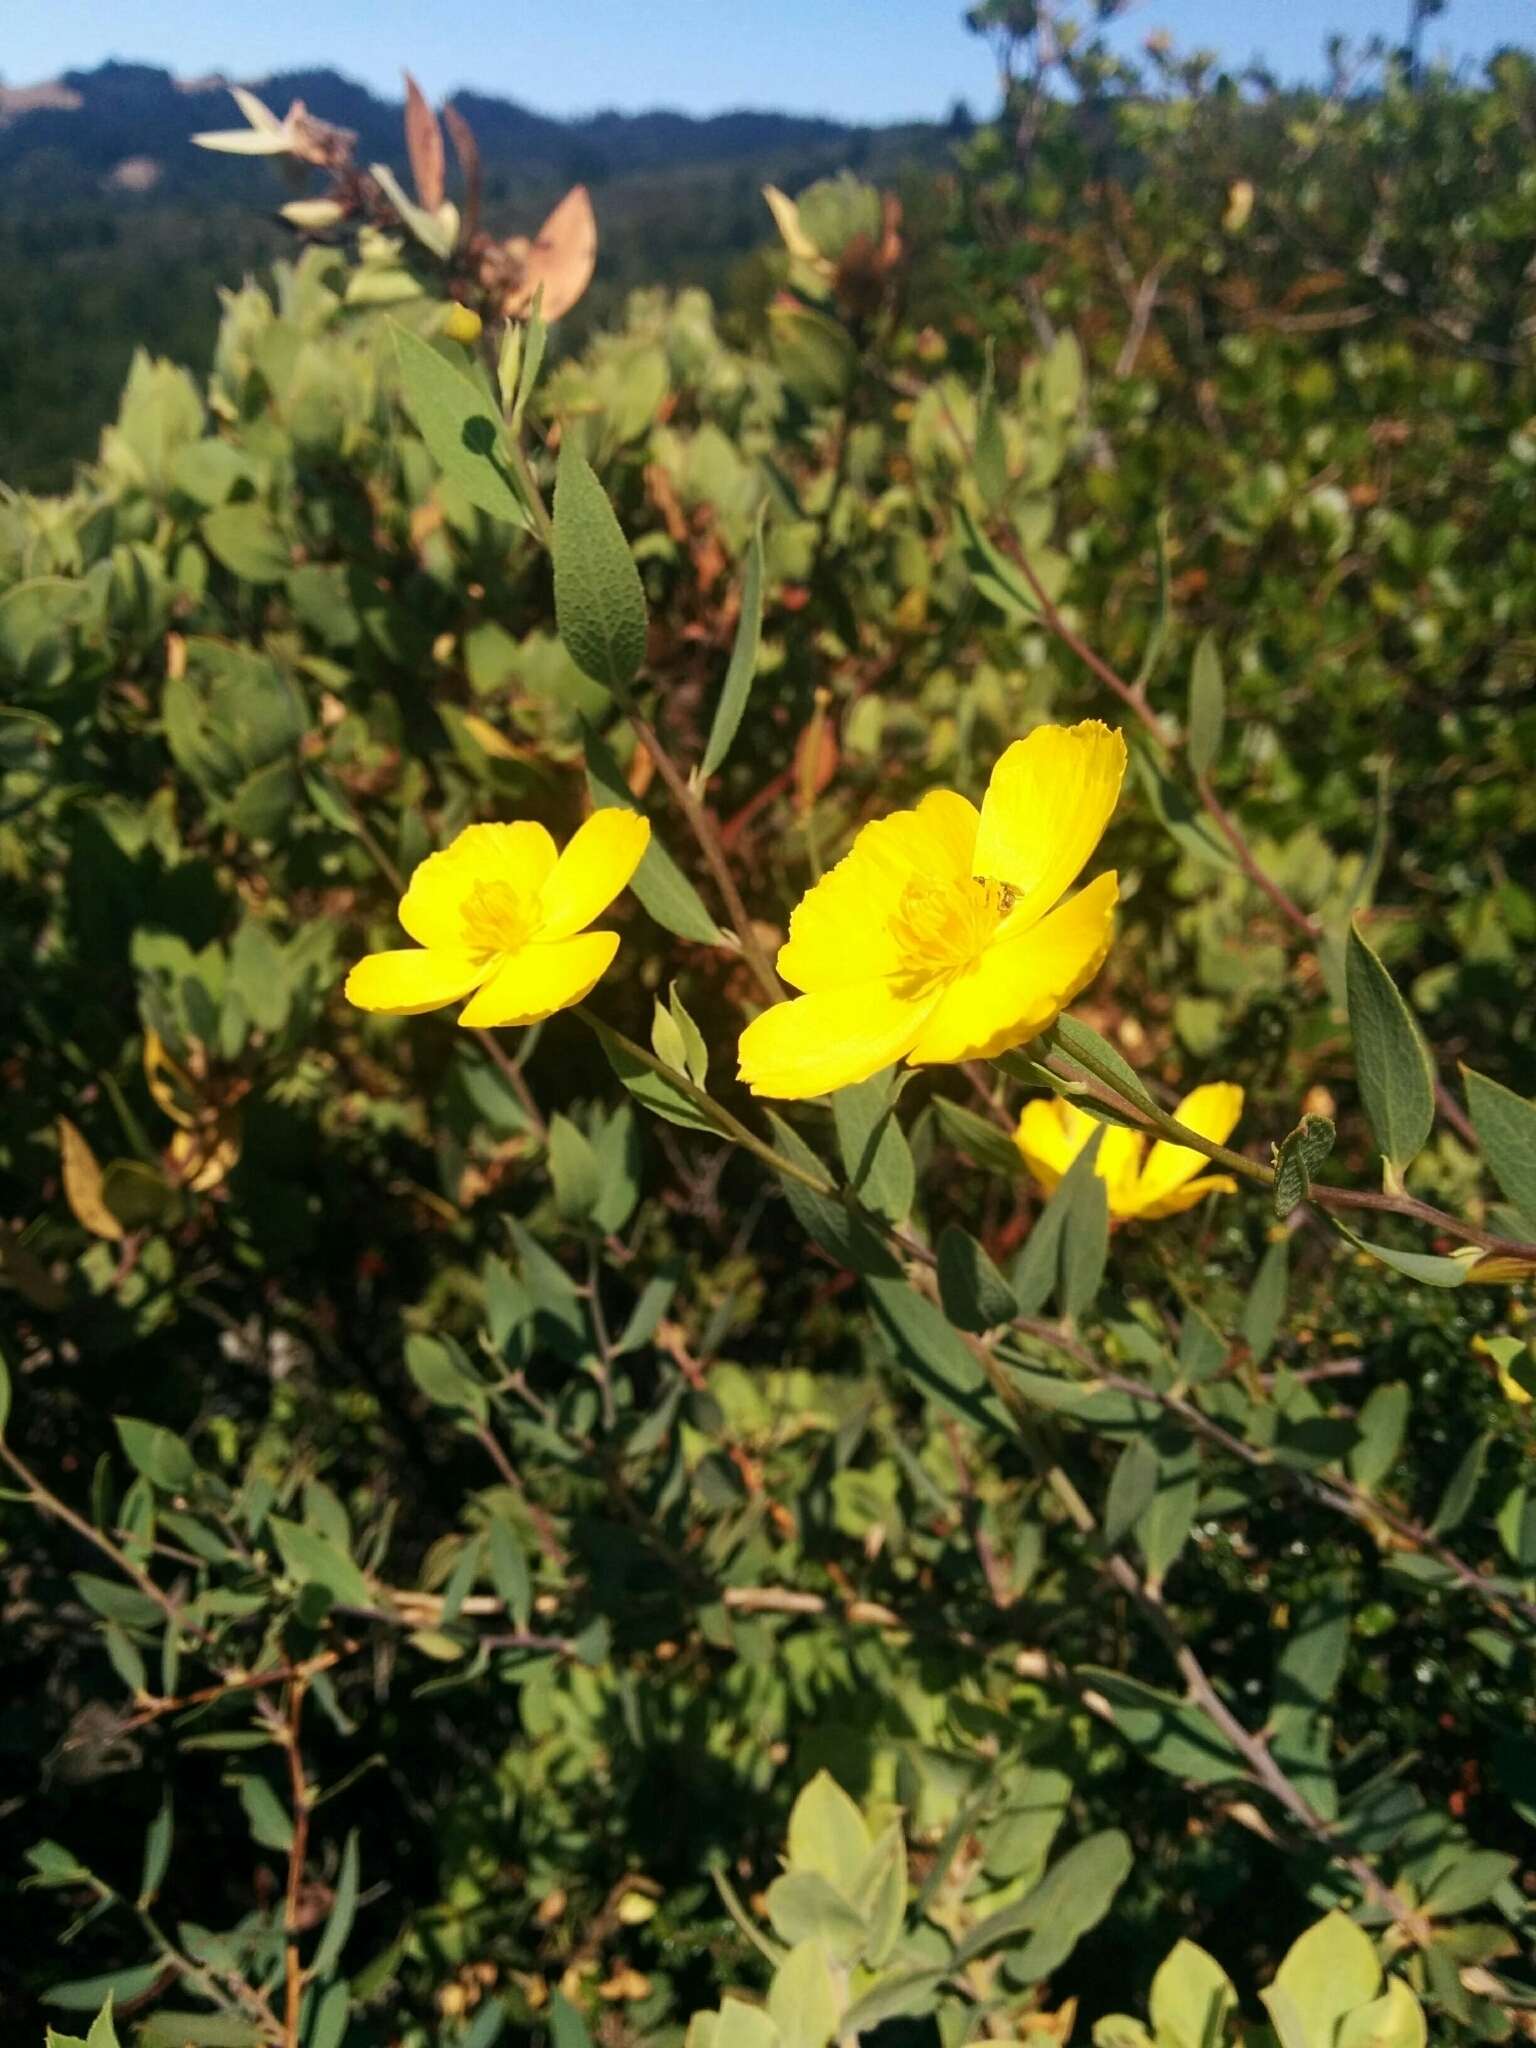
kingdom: Plantae
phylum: Tracheophyta
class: Magnoliopsida
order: Ranunculales
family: Papaveraceae
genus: Dendromecon
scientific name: Dendromecon rigida
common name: Tree poppy
